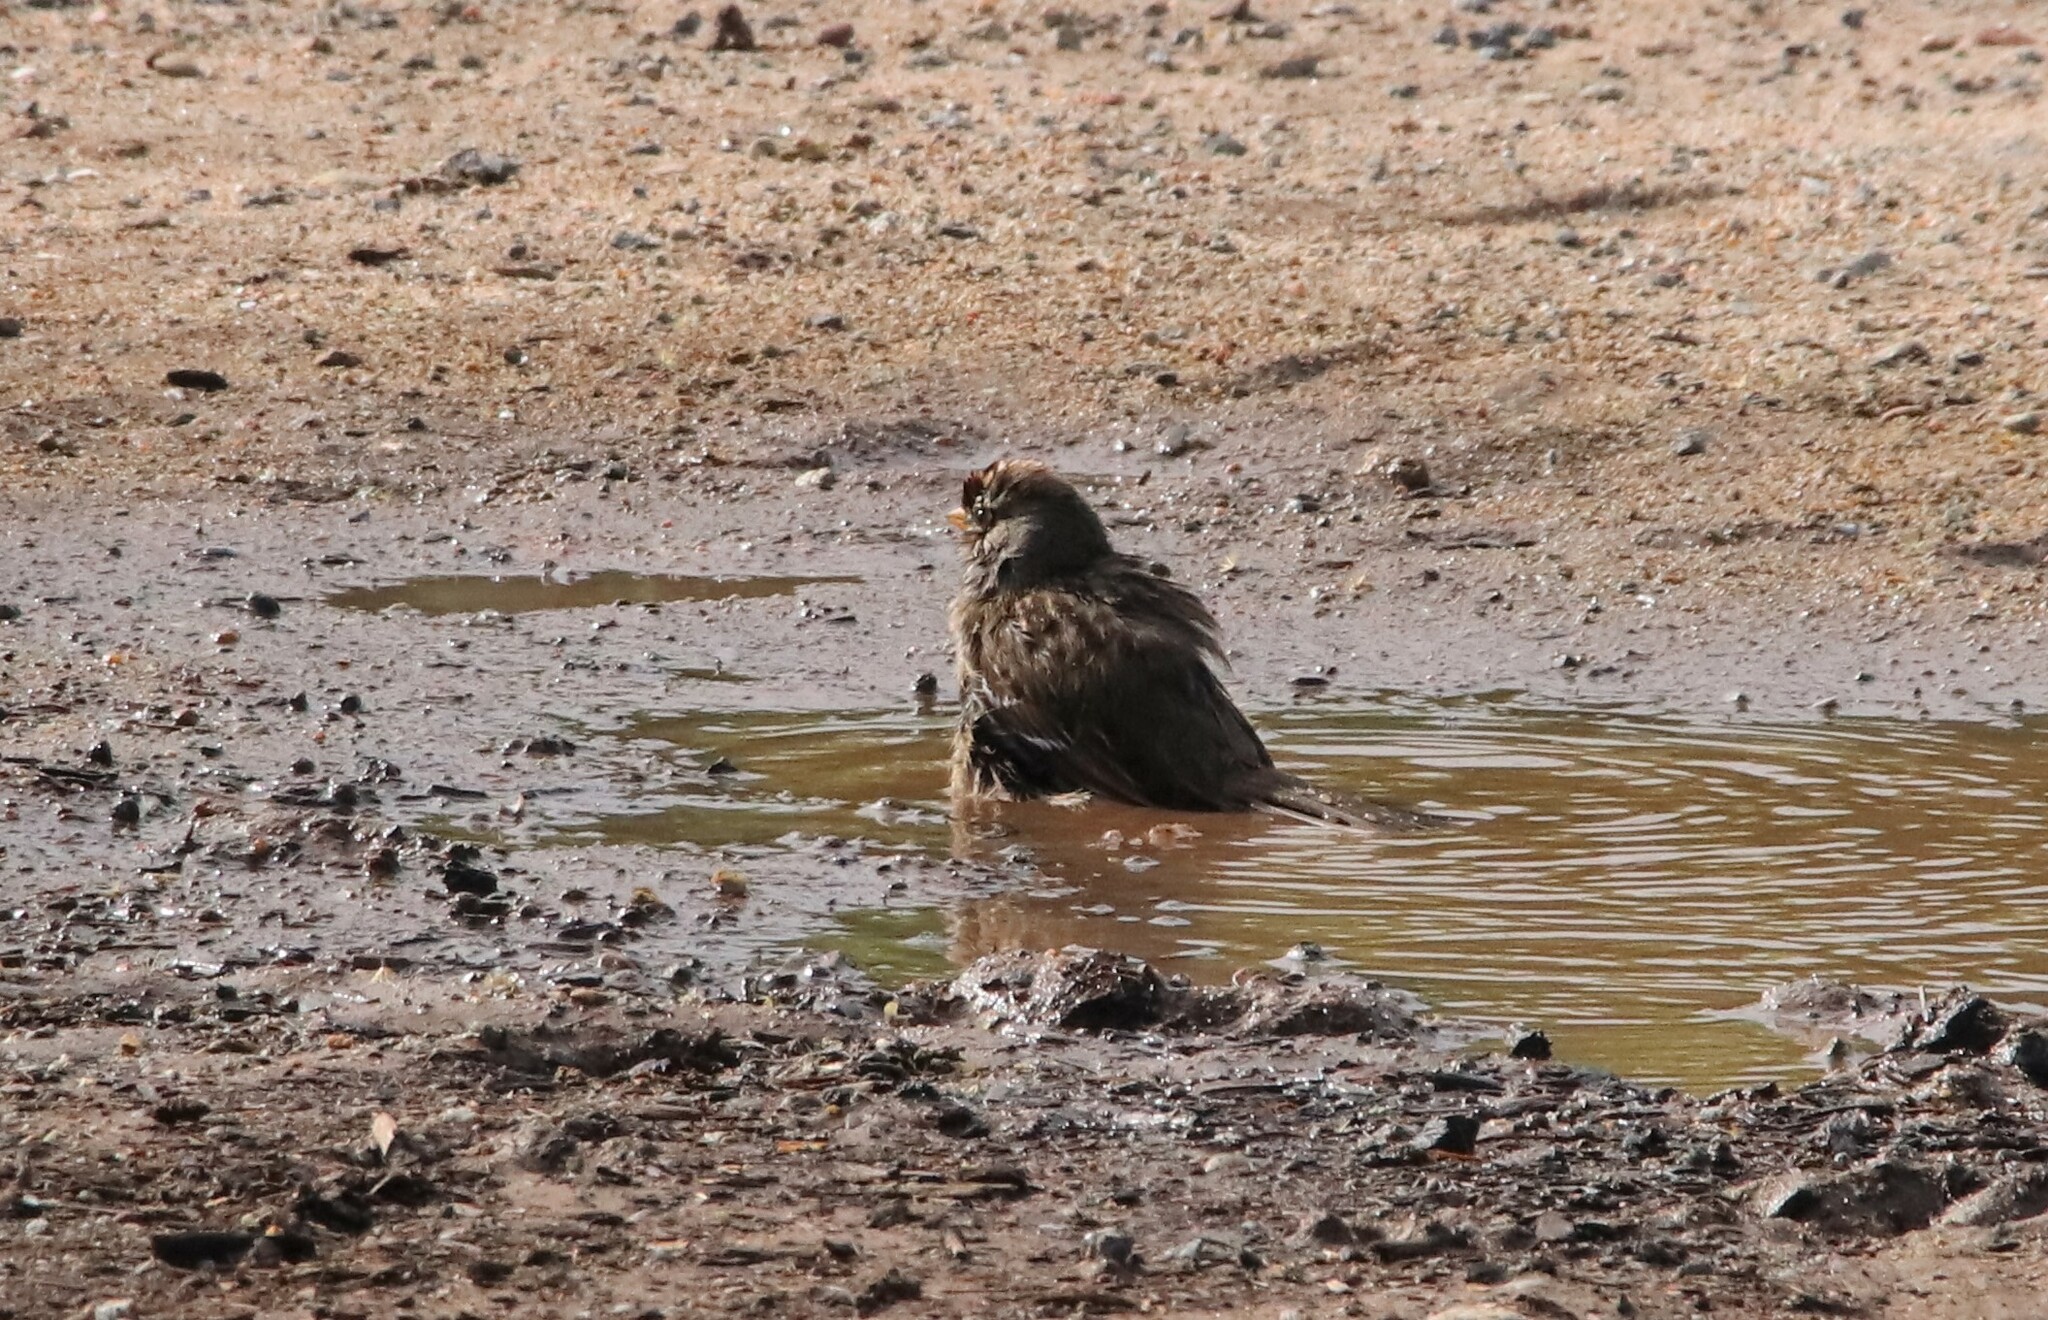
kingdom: Animalia
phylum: Chordata
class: Aves
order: Passeriformes
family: Passerellidae
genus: Zonotrichia
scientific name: Zonotrichia leucophrys
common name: White-crowned sparrow
